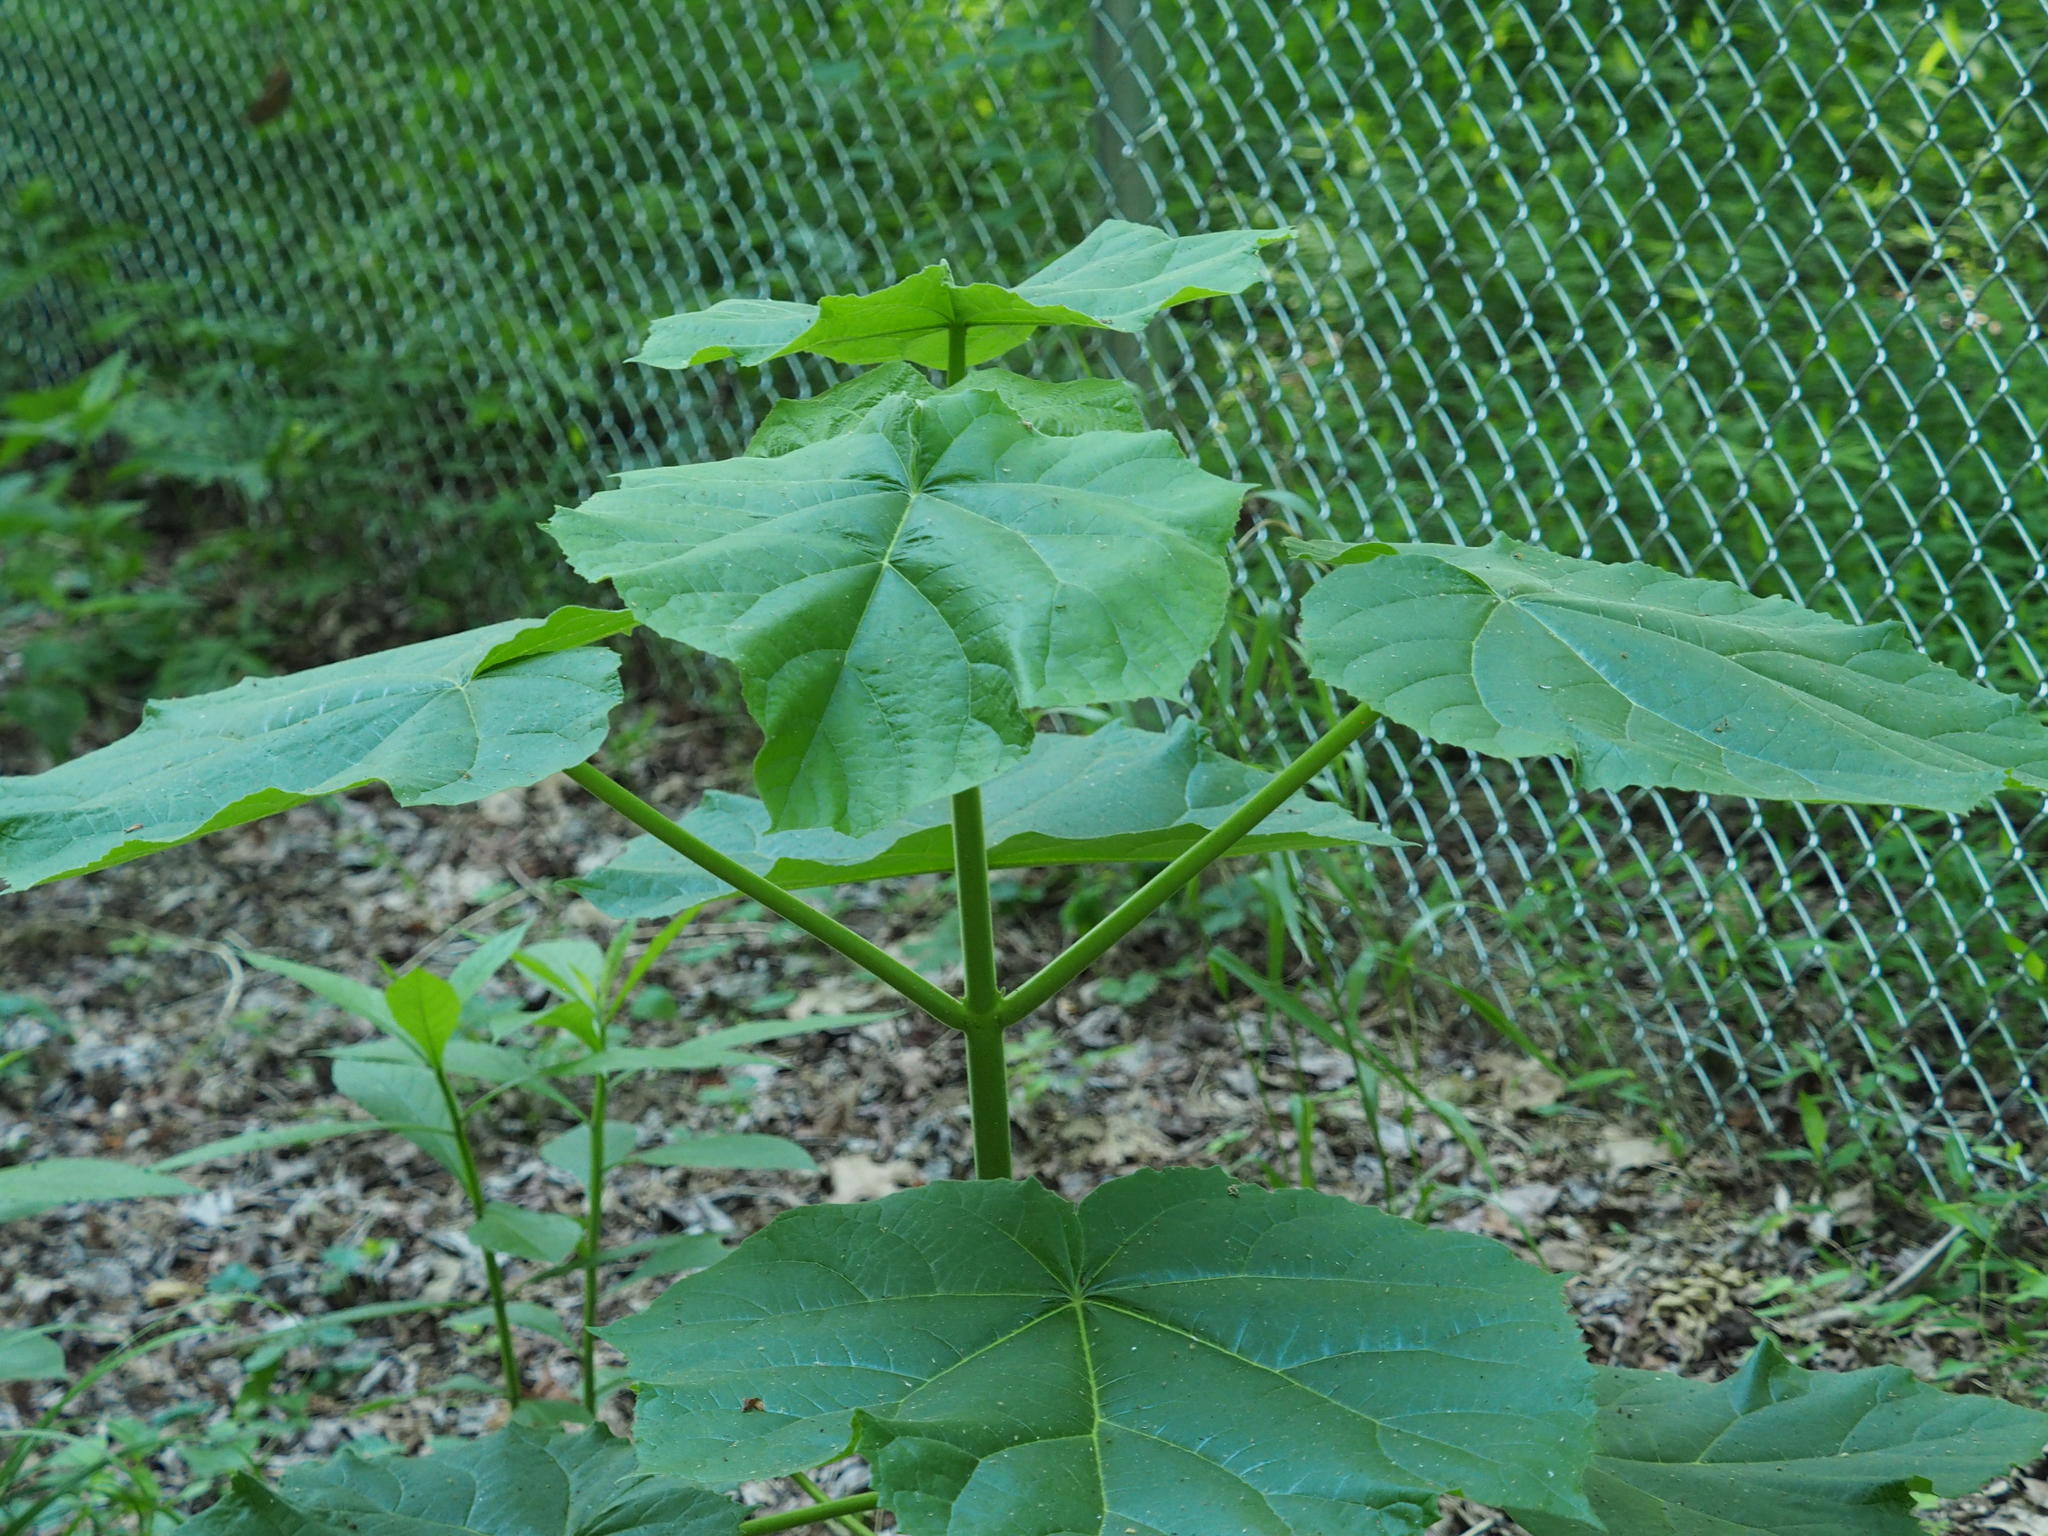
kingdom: Plantae
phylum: Tracheophyta
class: Magnoliopsida
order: Lamiales
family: Paulowniaceae
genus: Paulownia
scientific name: Paulownia tomentosa
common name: Foxglove-tree
